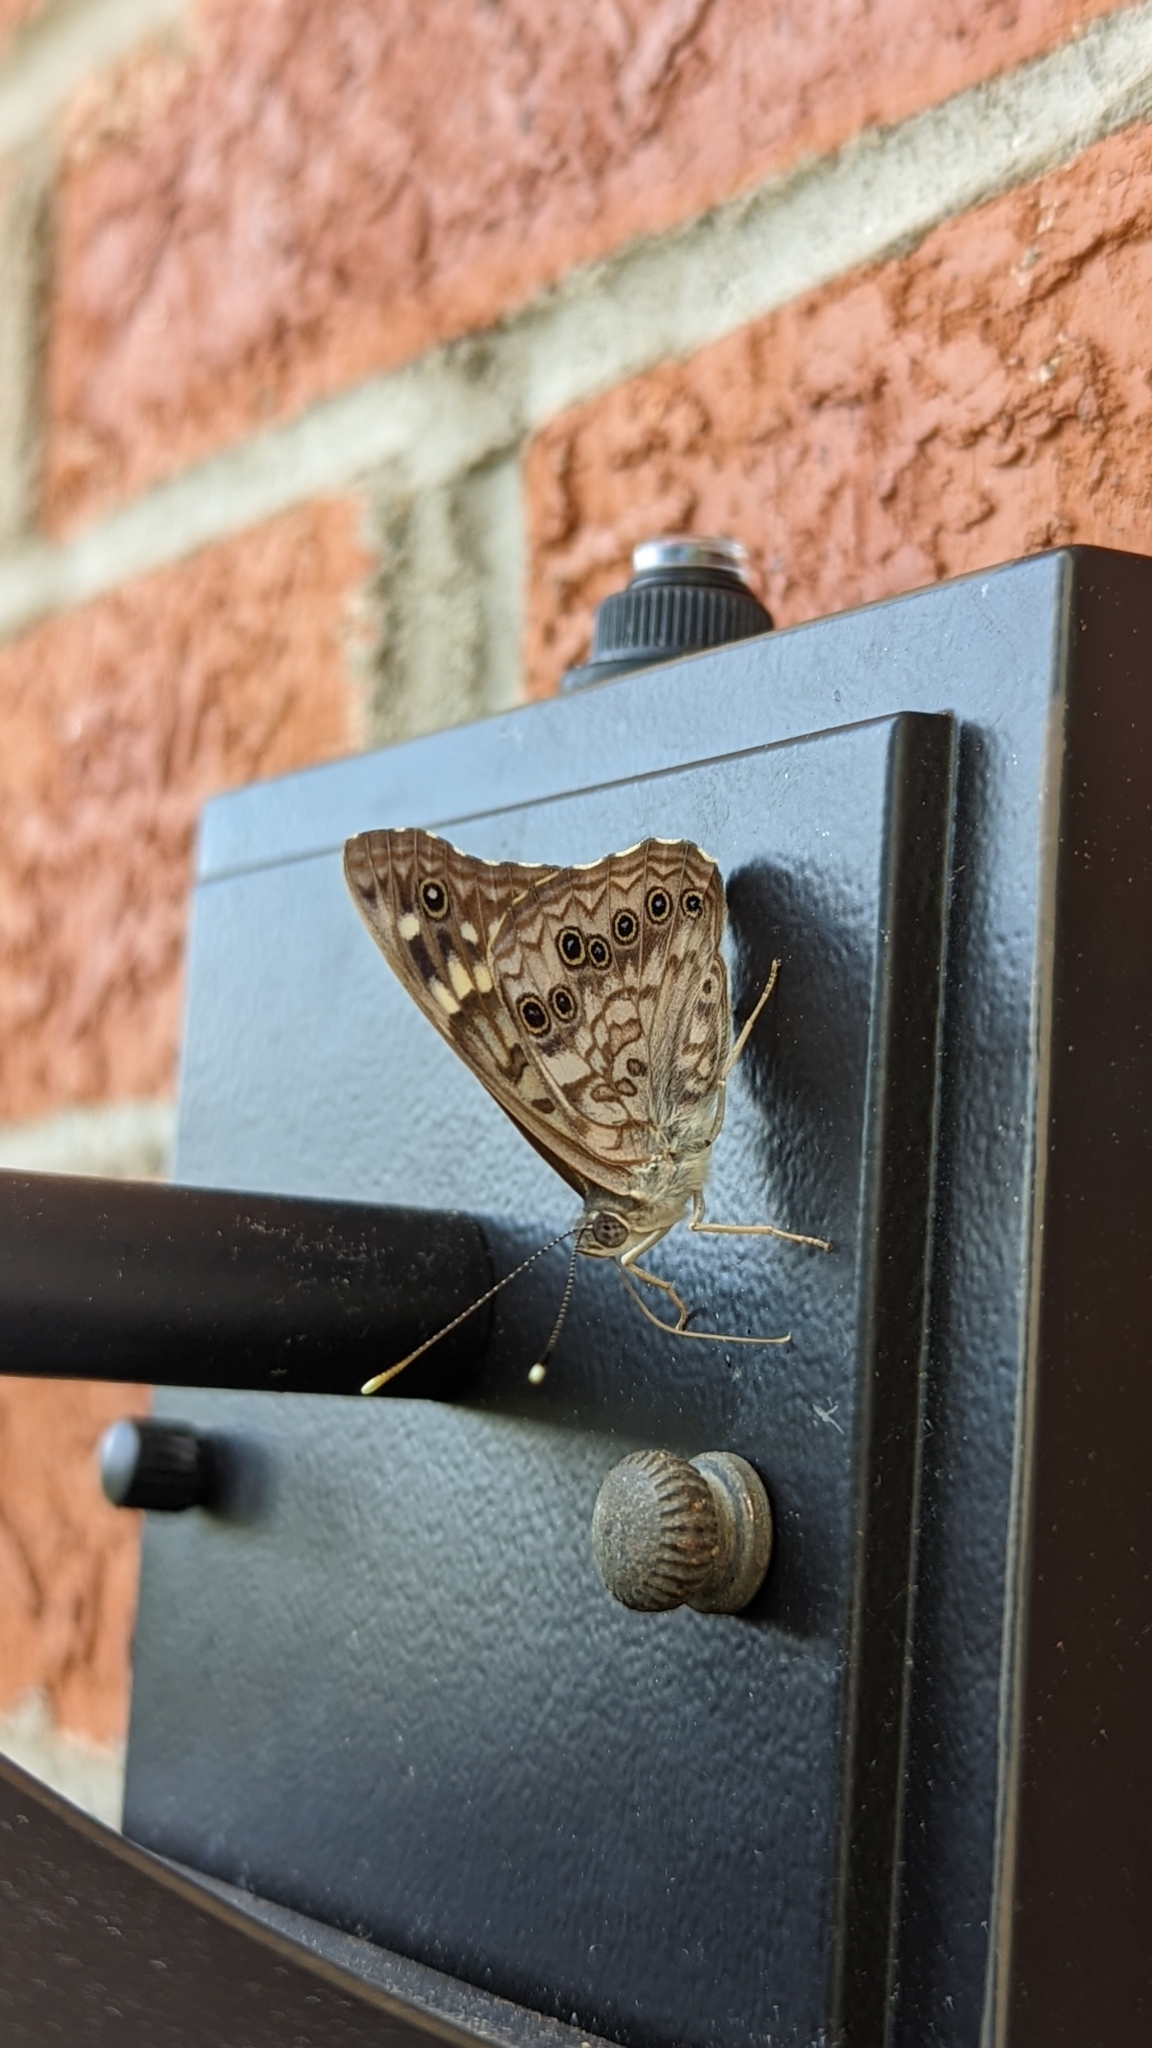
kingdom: Animalia
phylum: Arthropoda
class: Insecta
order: Lepidoptera
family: Nymphalidae
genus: Asterocampa
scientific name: Asterocampa celtis
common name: Hackberry emperor
